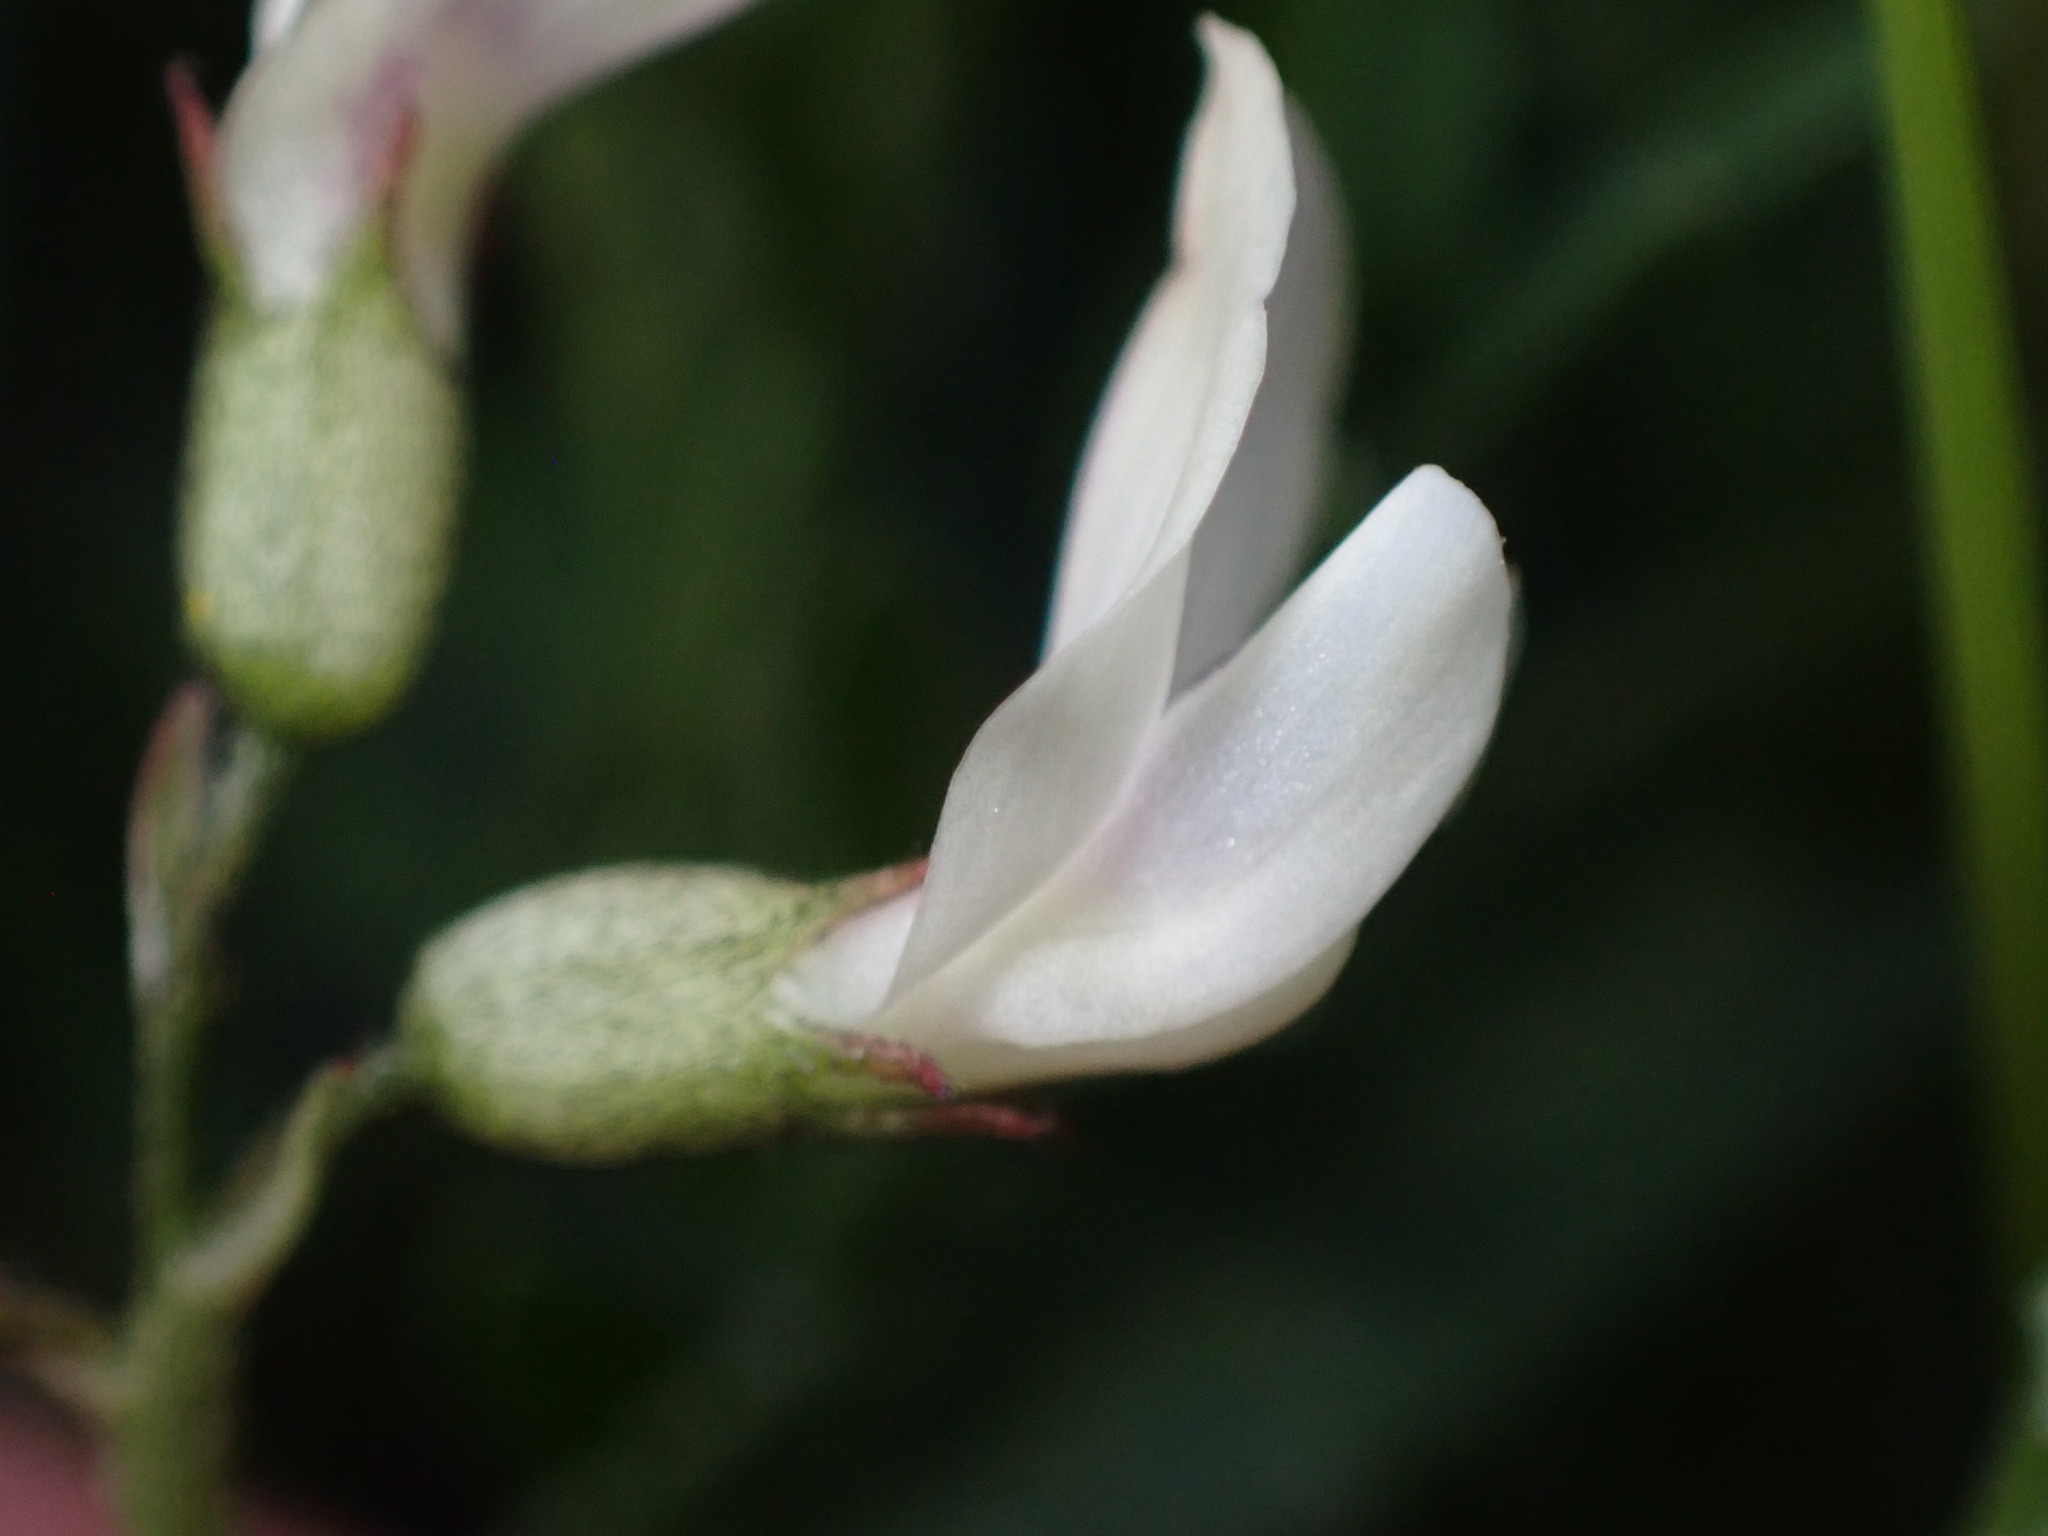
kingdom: Plantae
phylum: Tracheophyta
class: Magnoliopsida
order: Fabales
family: Fabaceae
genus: Astragalus
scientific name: Astragalus leptaleus
